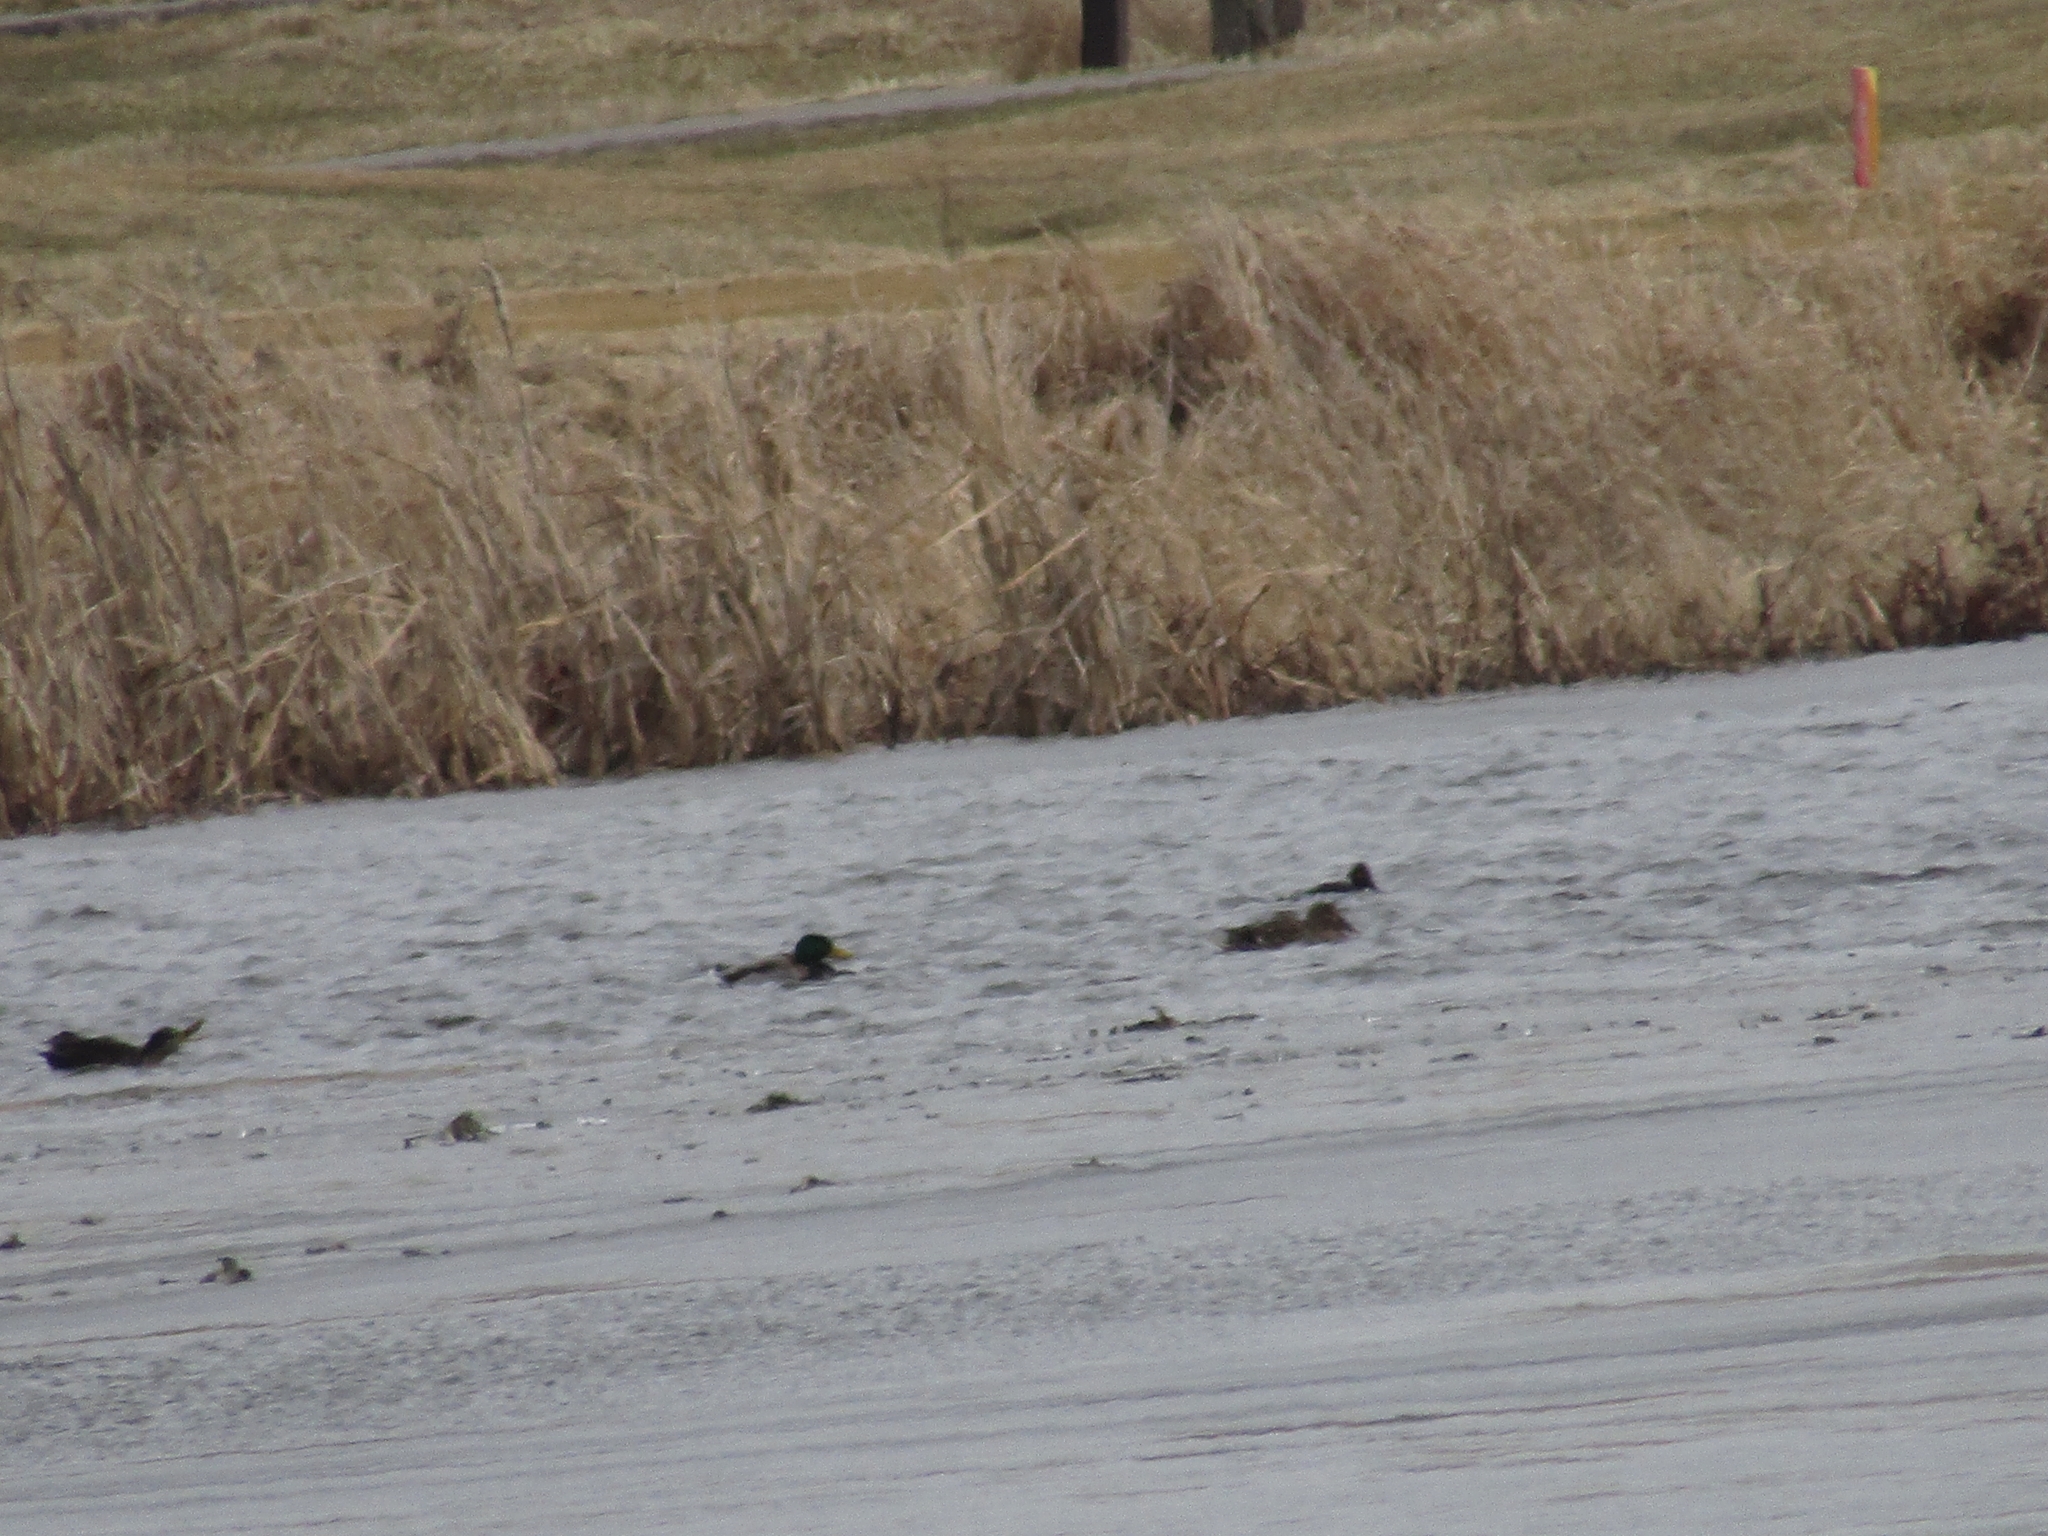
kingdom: Animalia
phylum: Chordata
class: Aves
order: Anseriformes
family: Anatidae
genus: Anas
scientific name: Anas platyrhynchos
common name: Mallard
